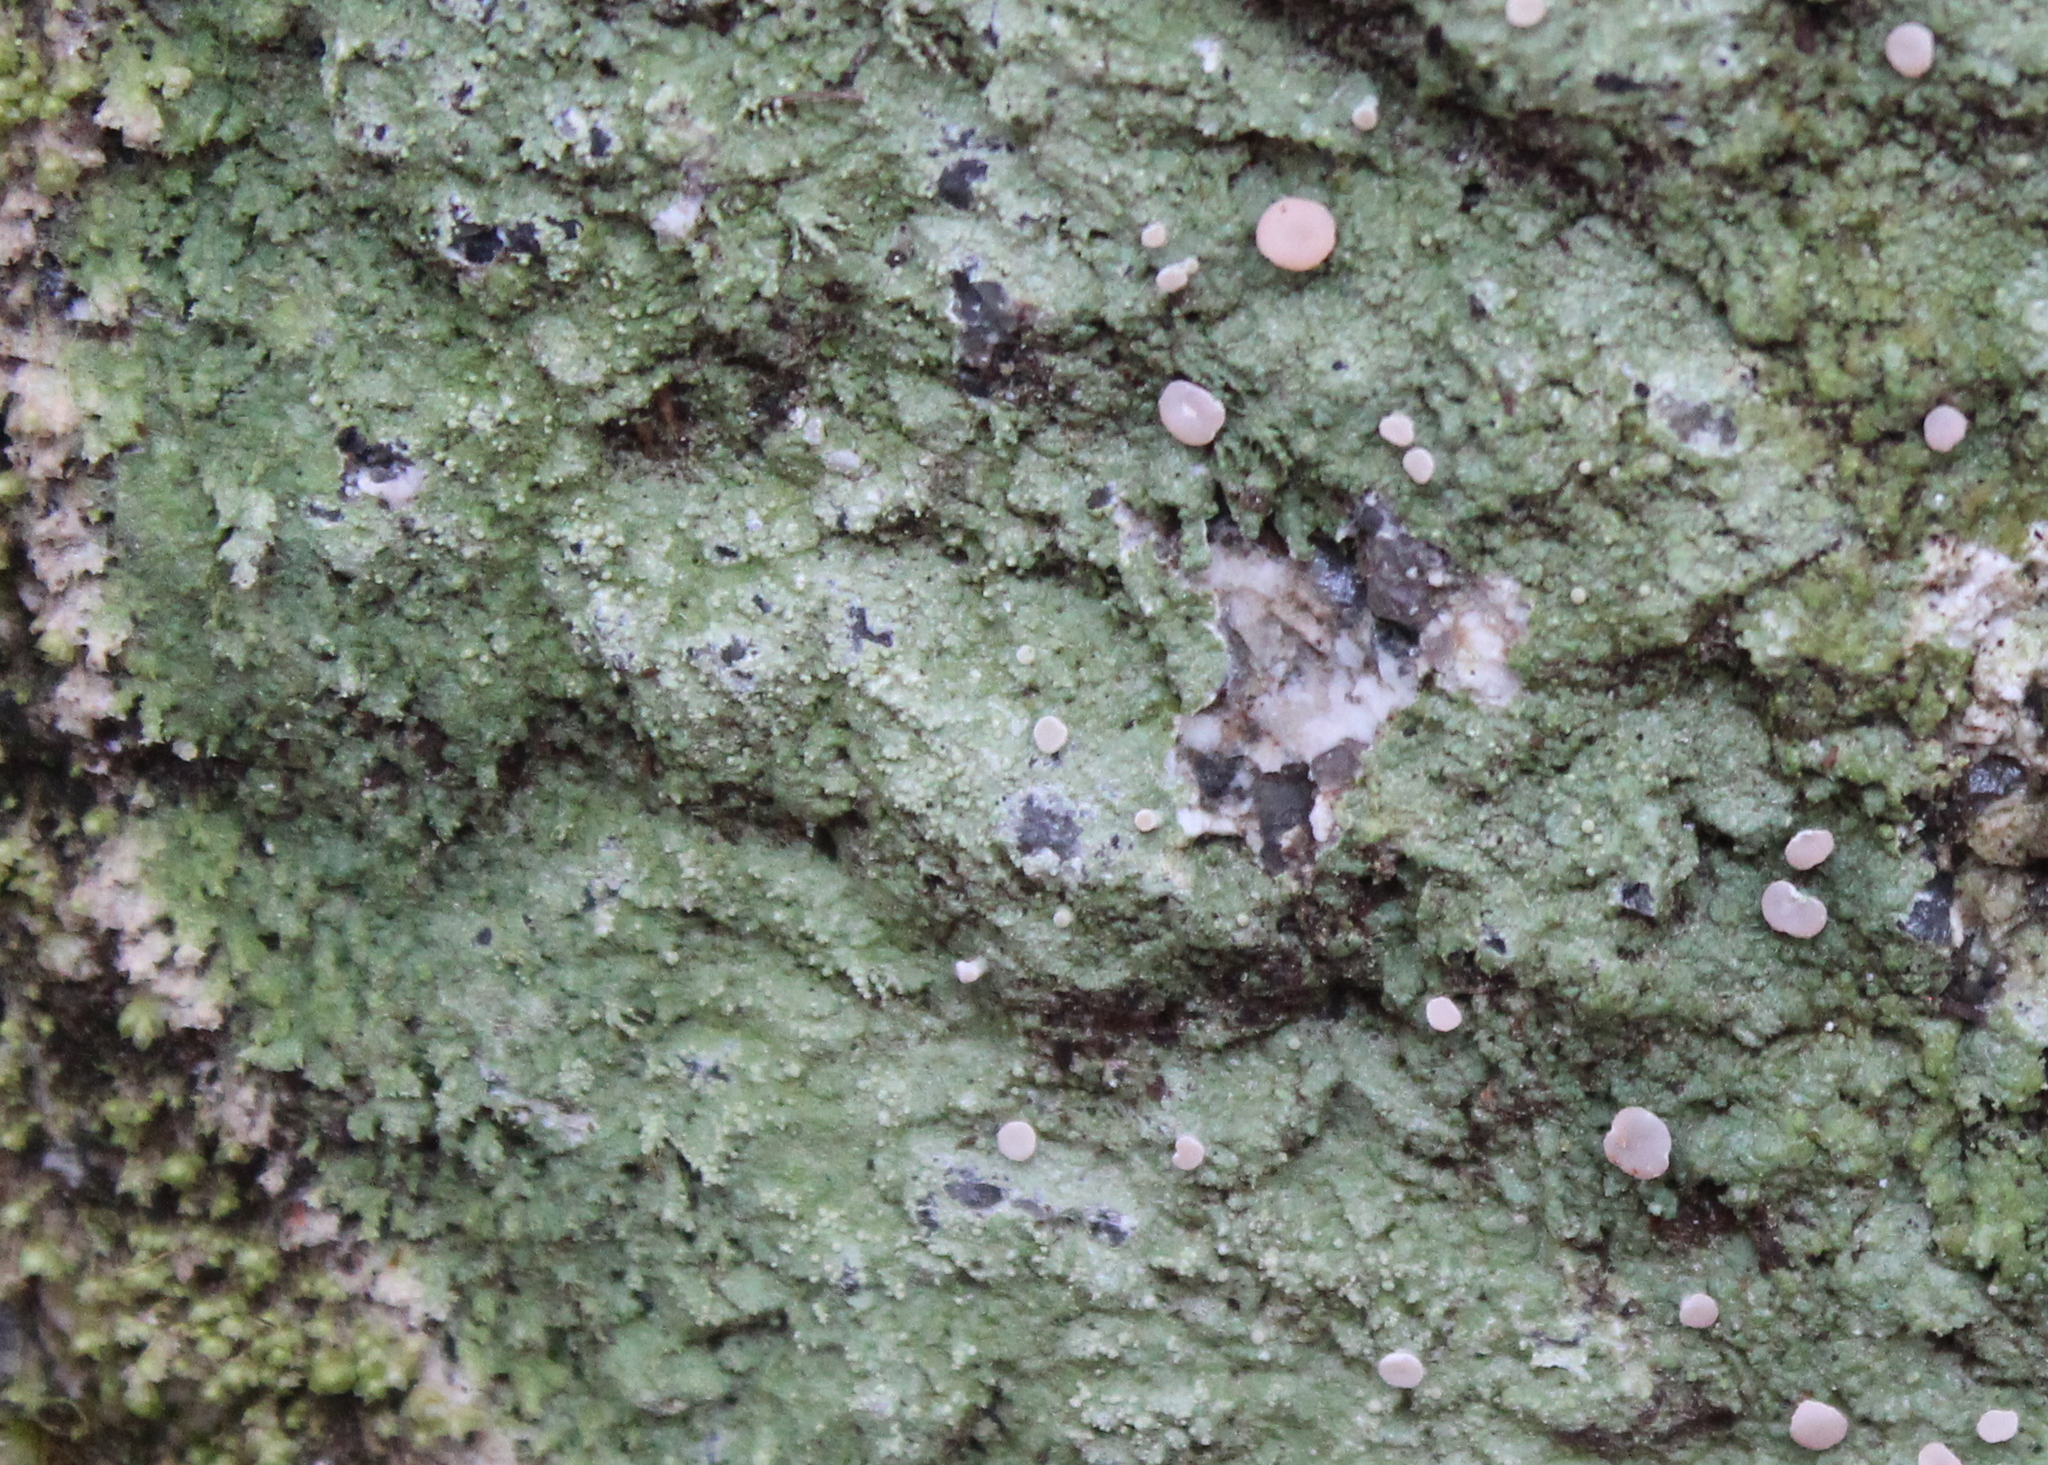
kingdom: Fungi
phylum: Ascomycota
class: Lecanoromycetes
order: Pertusariales
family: Icmadophilaceae
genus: Icmadophila
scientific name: Icmadophila ericetorum
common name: Candy lichen
